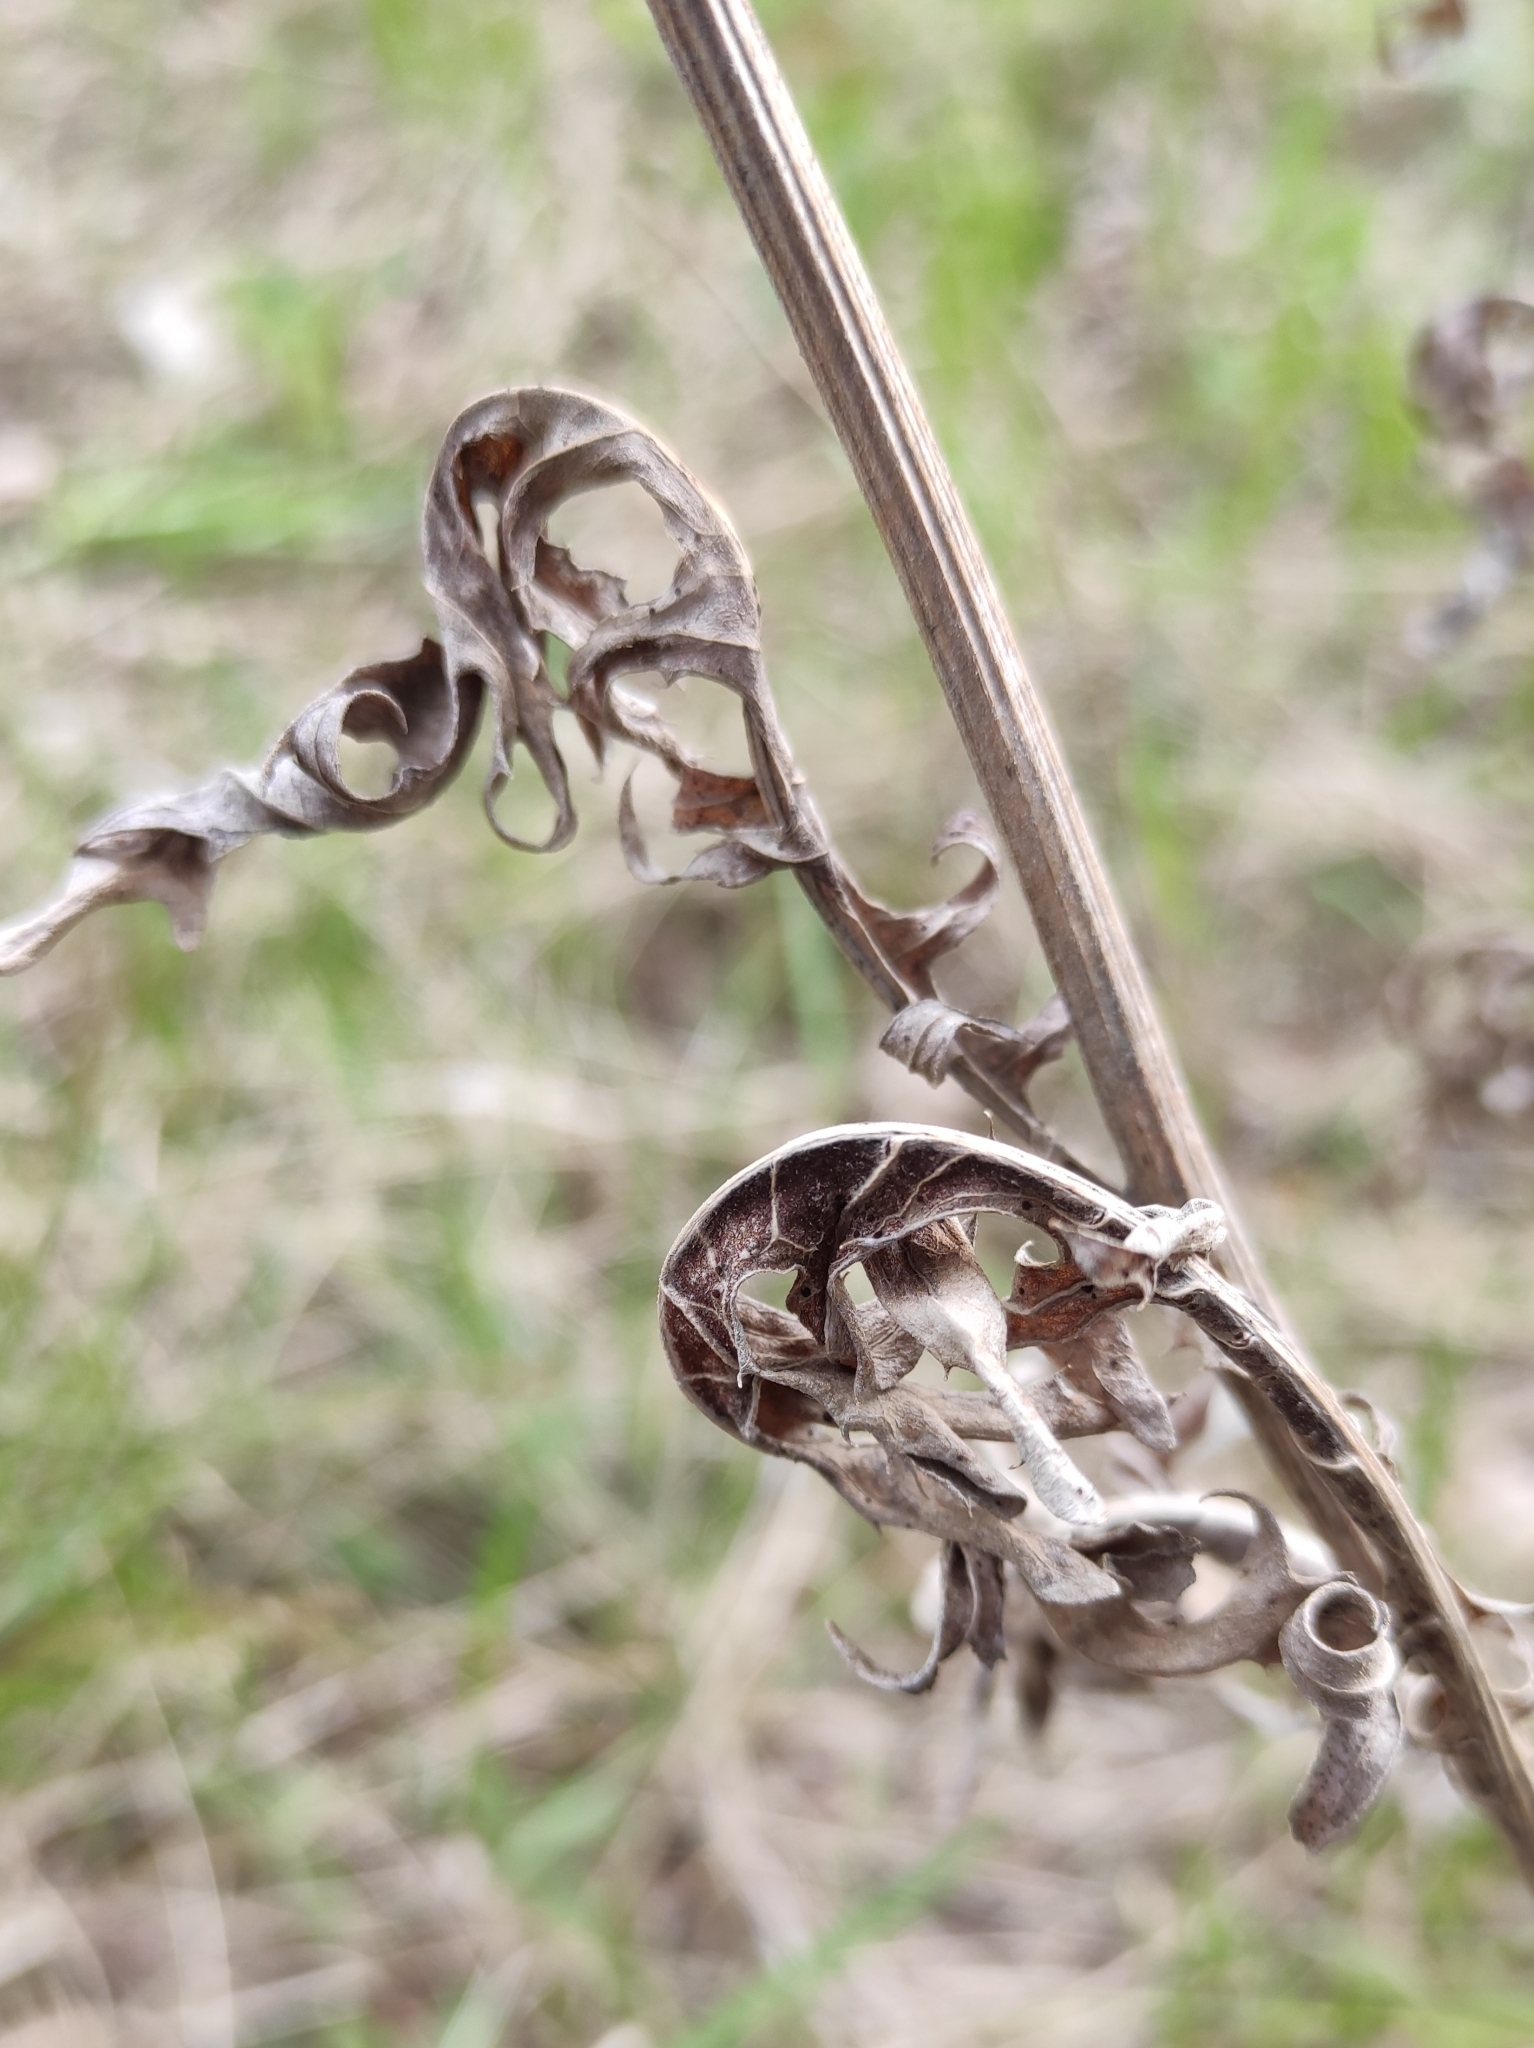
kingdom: Plantae
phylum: Tracheophyta
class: Magnoliopsida
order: Asterales
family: Asteraceae
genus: Leuzea
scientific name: Leuzea uniflora
